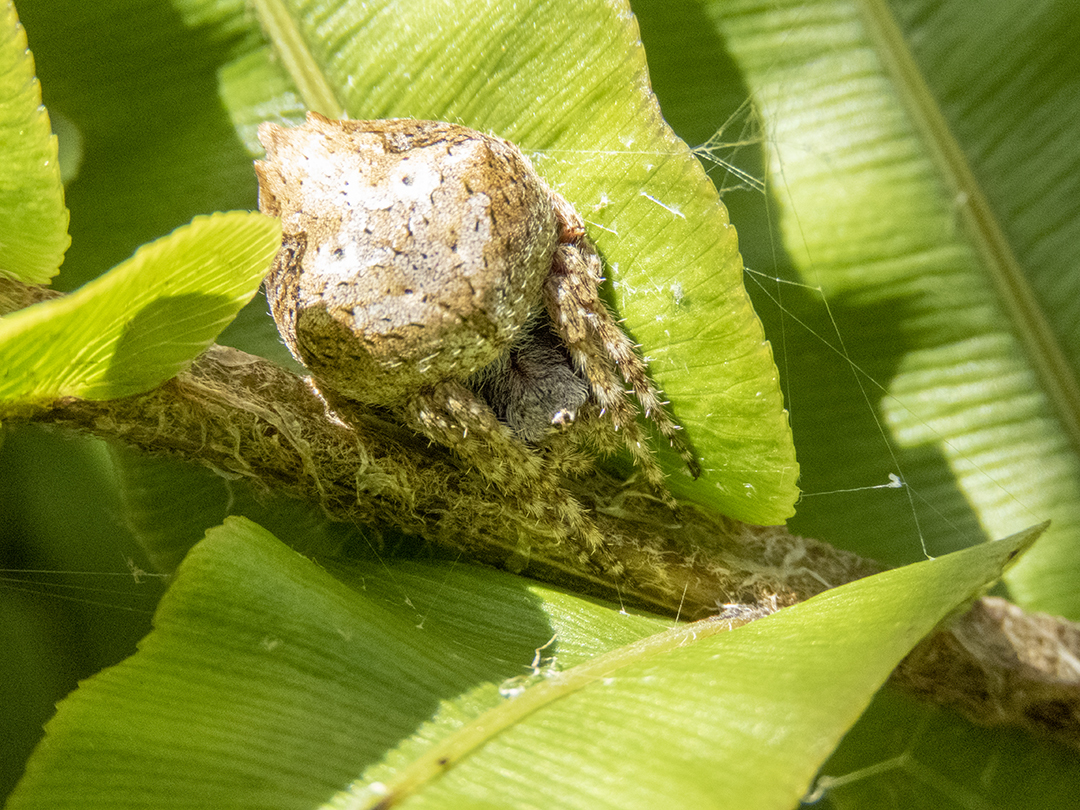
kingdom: Animalia
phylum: Arthropoda
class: Arachnida
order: Araneae
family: Araneidae
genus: Eriophora
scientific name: Eriophora pustulosa
